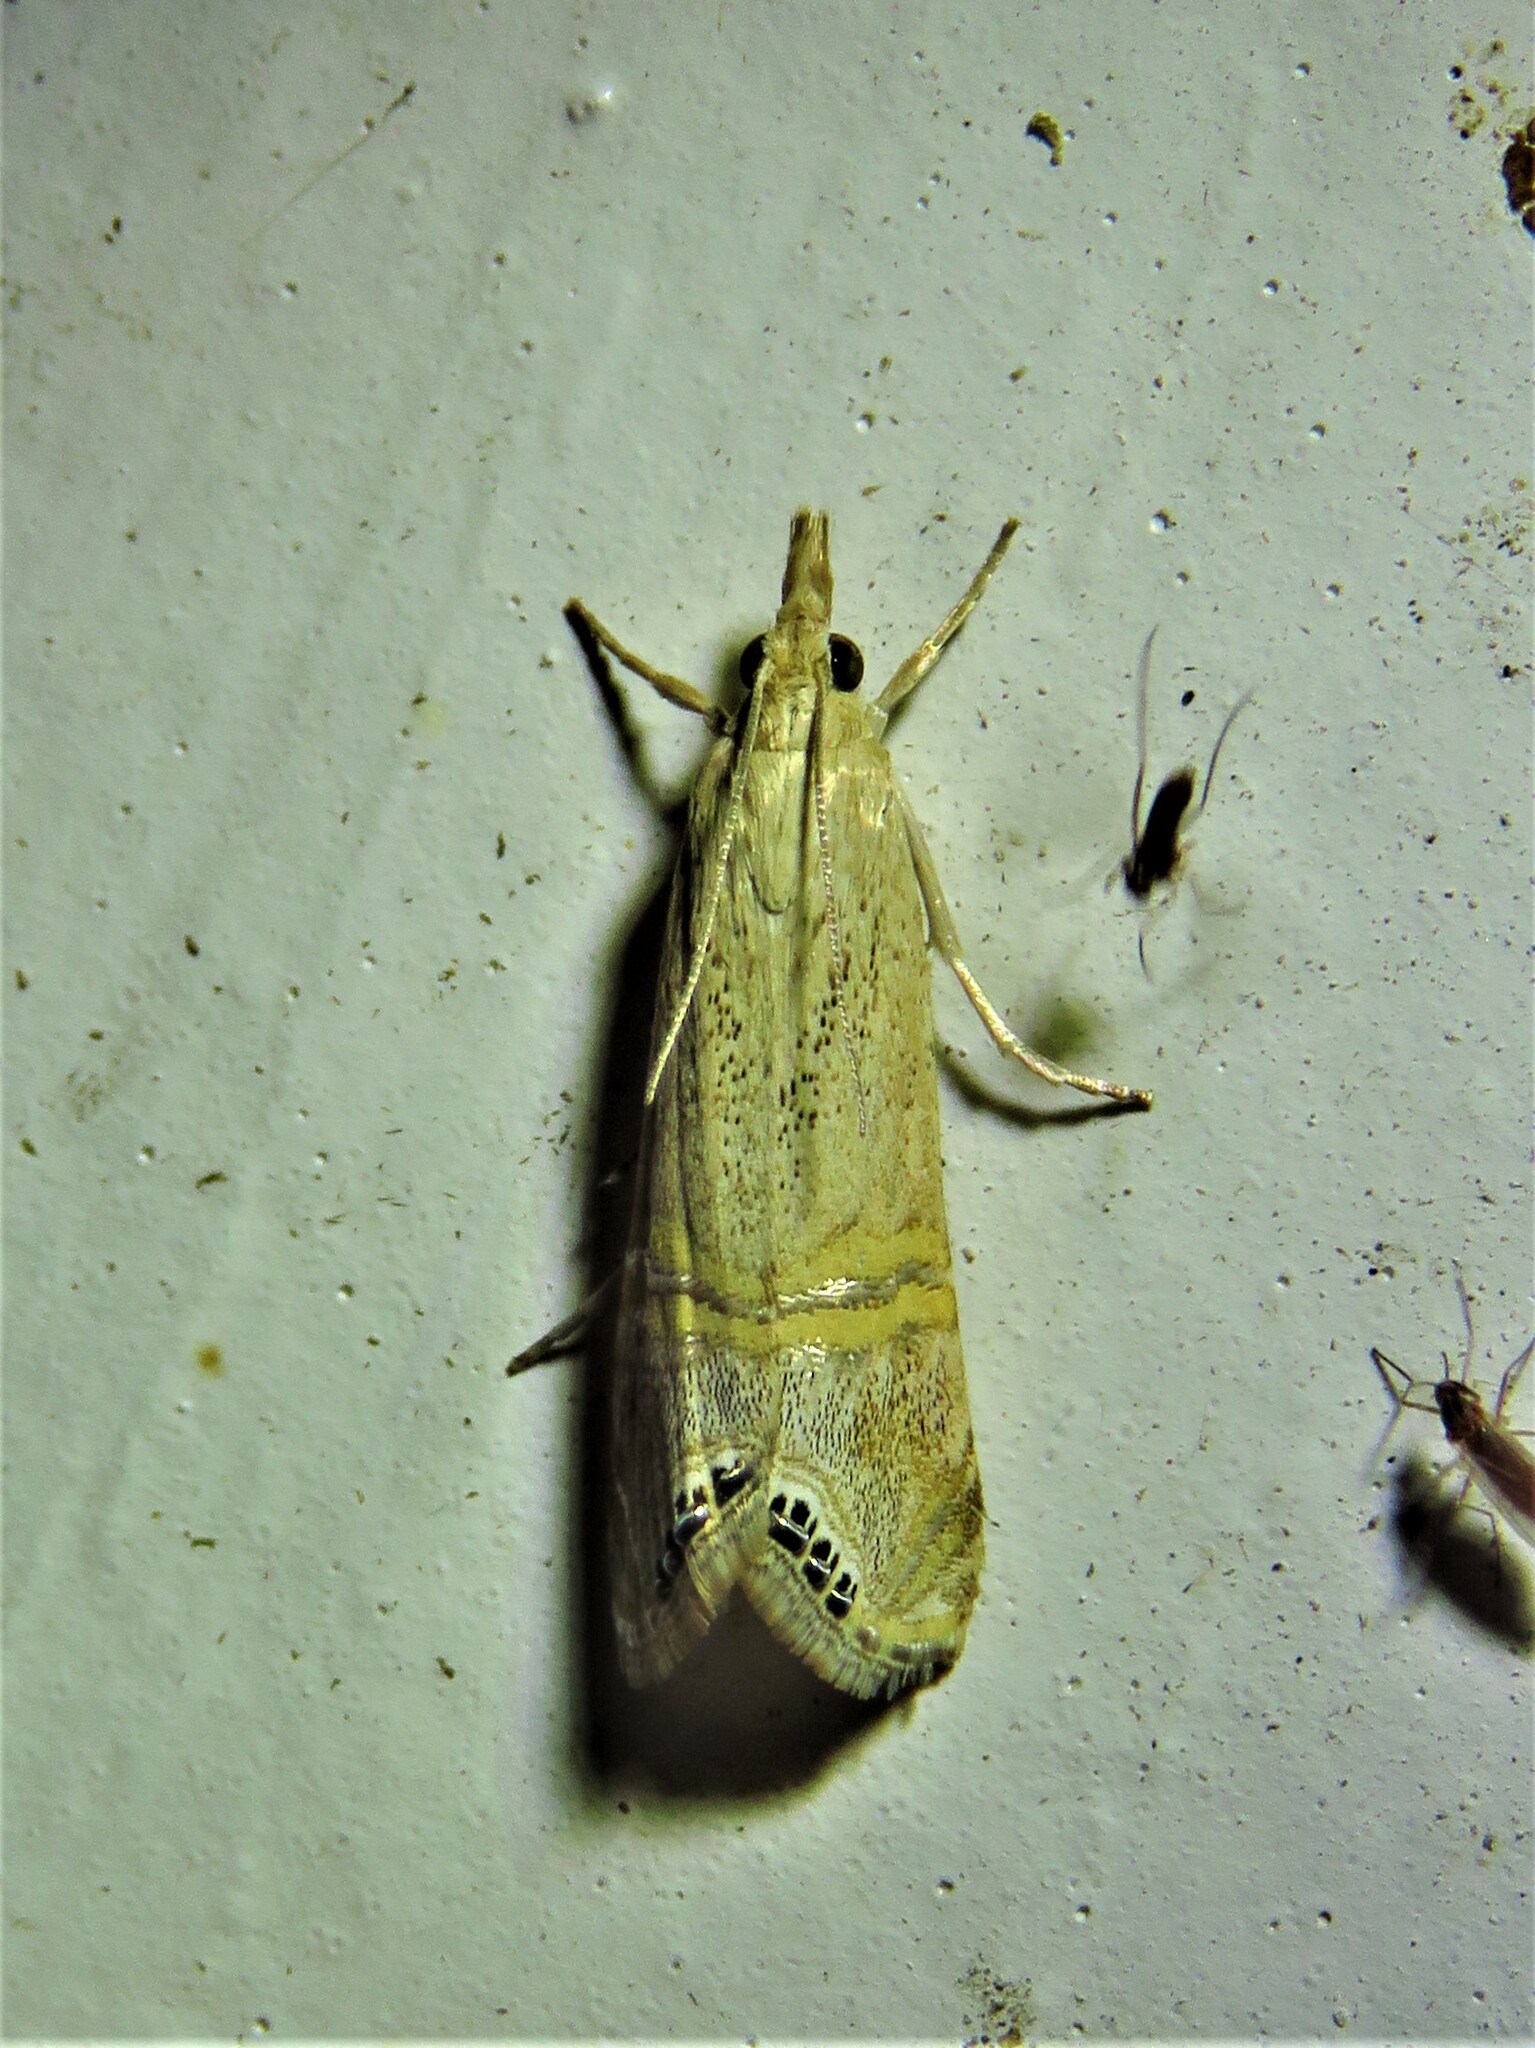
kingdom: Animalia
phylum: Arthropoda
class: Insecta
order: Lepidoptera
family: Crambidae
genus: Euchromius
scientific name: Euchromius ocellea
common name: Necklace veneer moth
